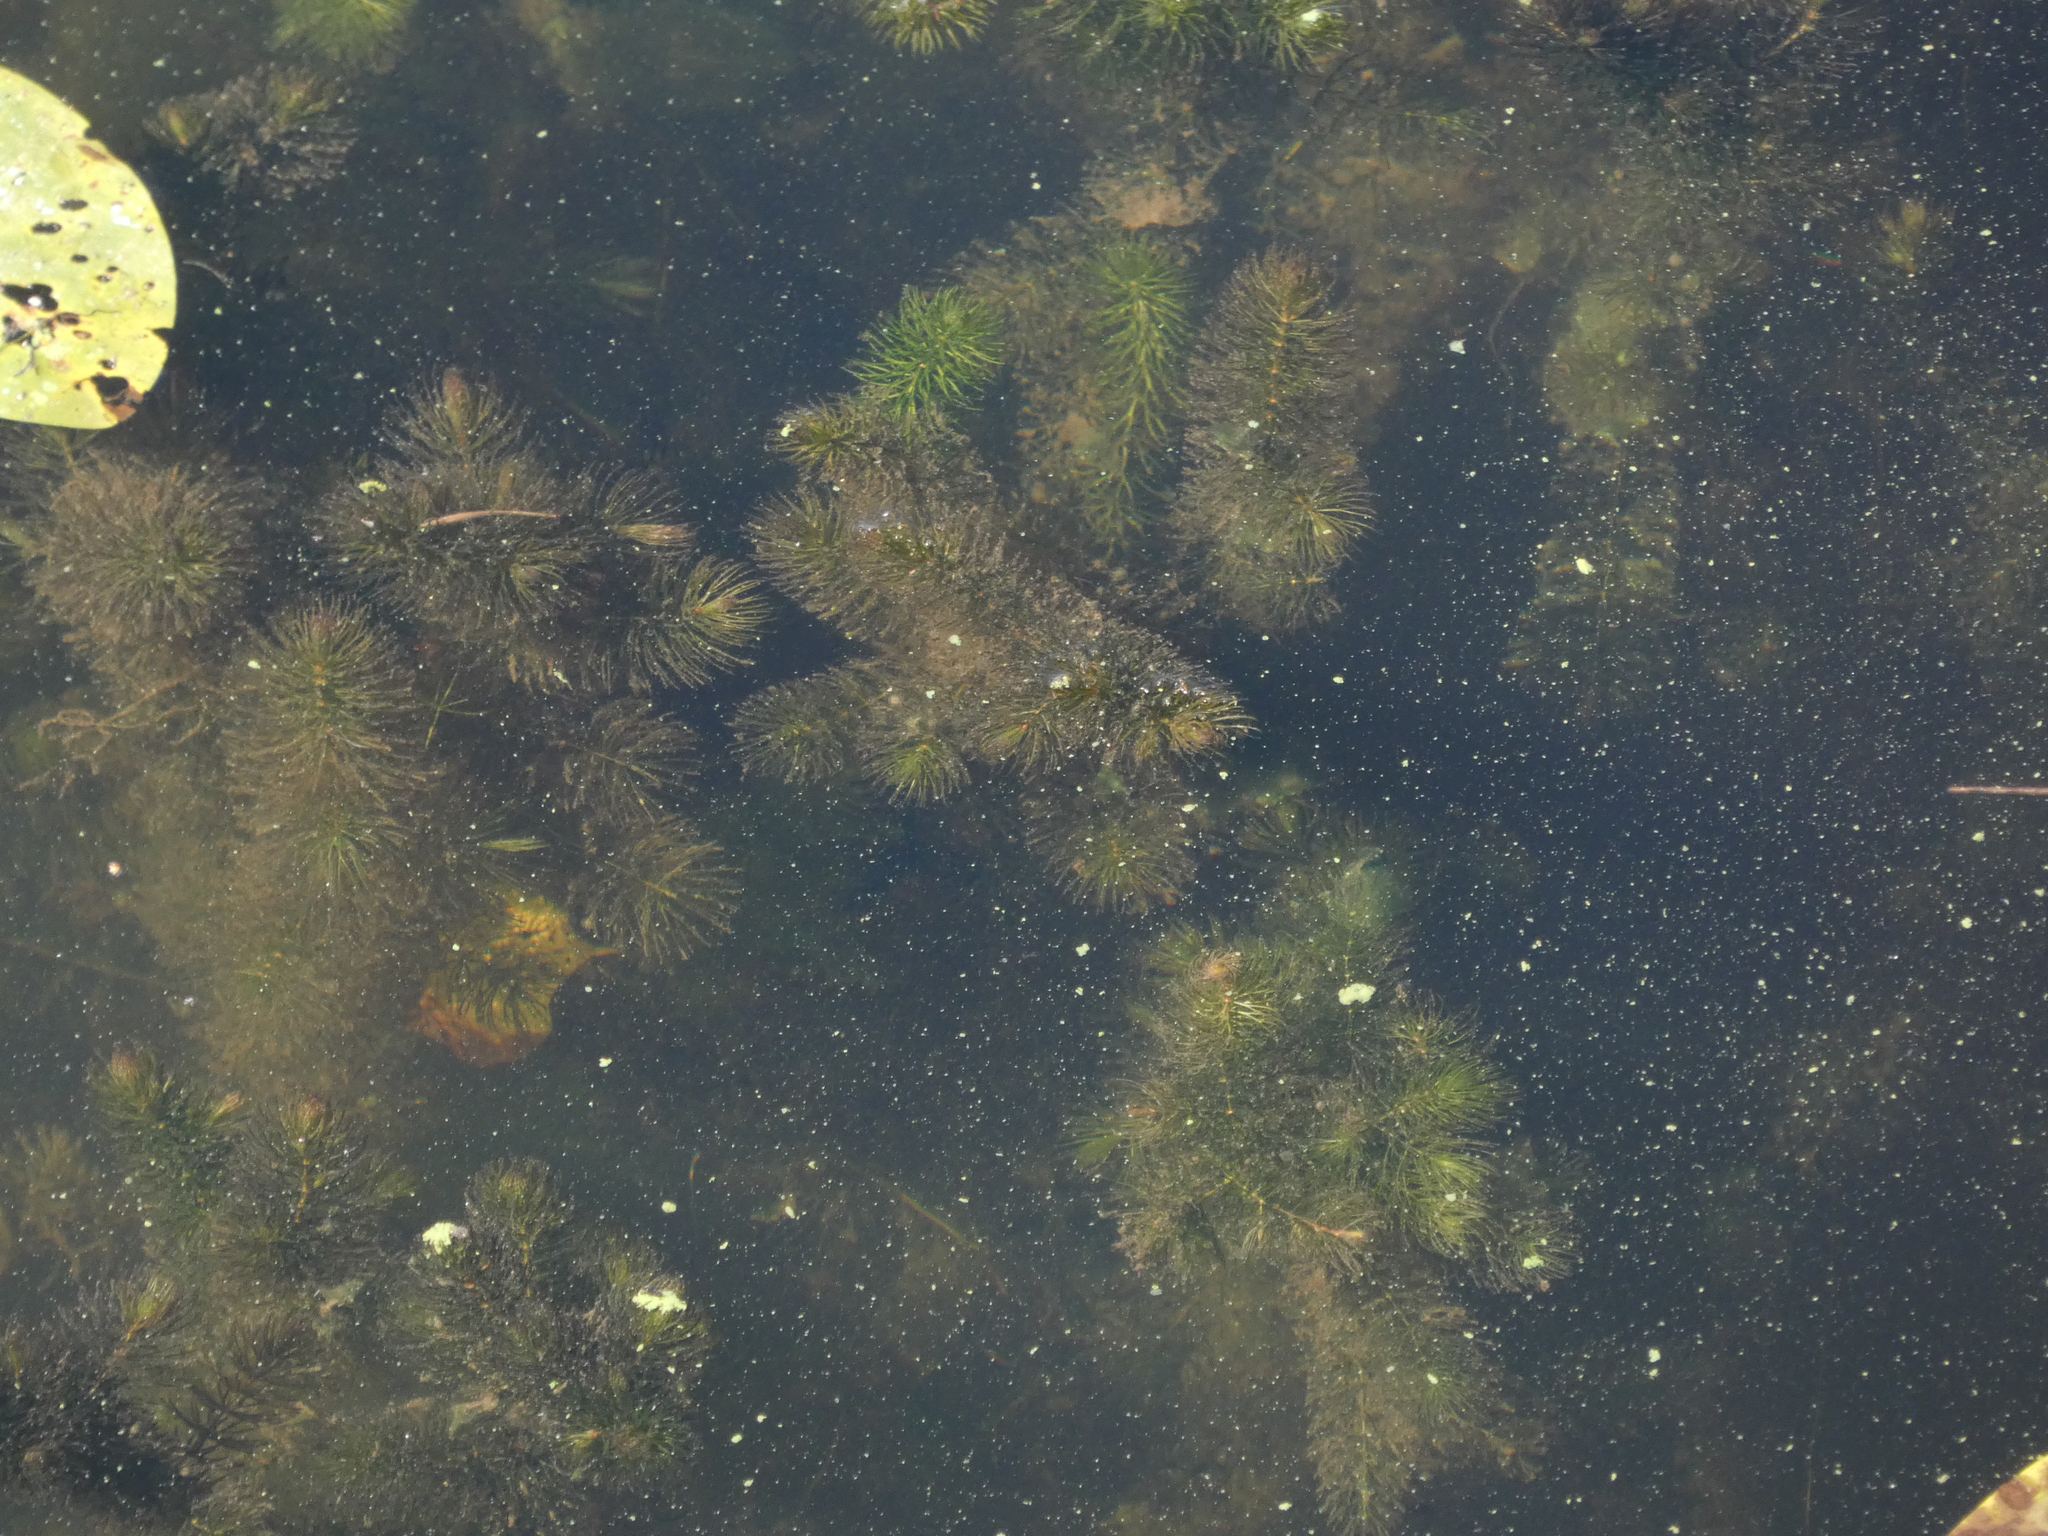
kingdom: Plantae
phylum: Tracheophyta
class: Magnoliopsida
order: Ceratophyllales
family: Ceratophyllaceae
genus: Ceratophyllum
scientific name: Ceratophyllum demersum
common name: Rigid hornwort
